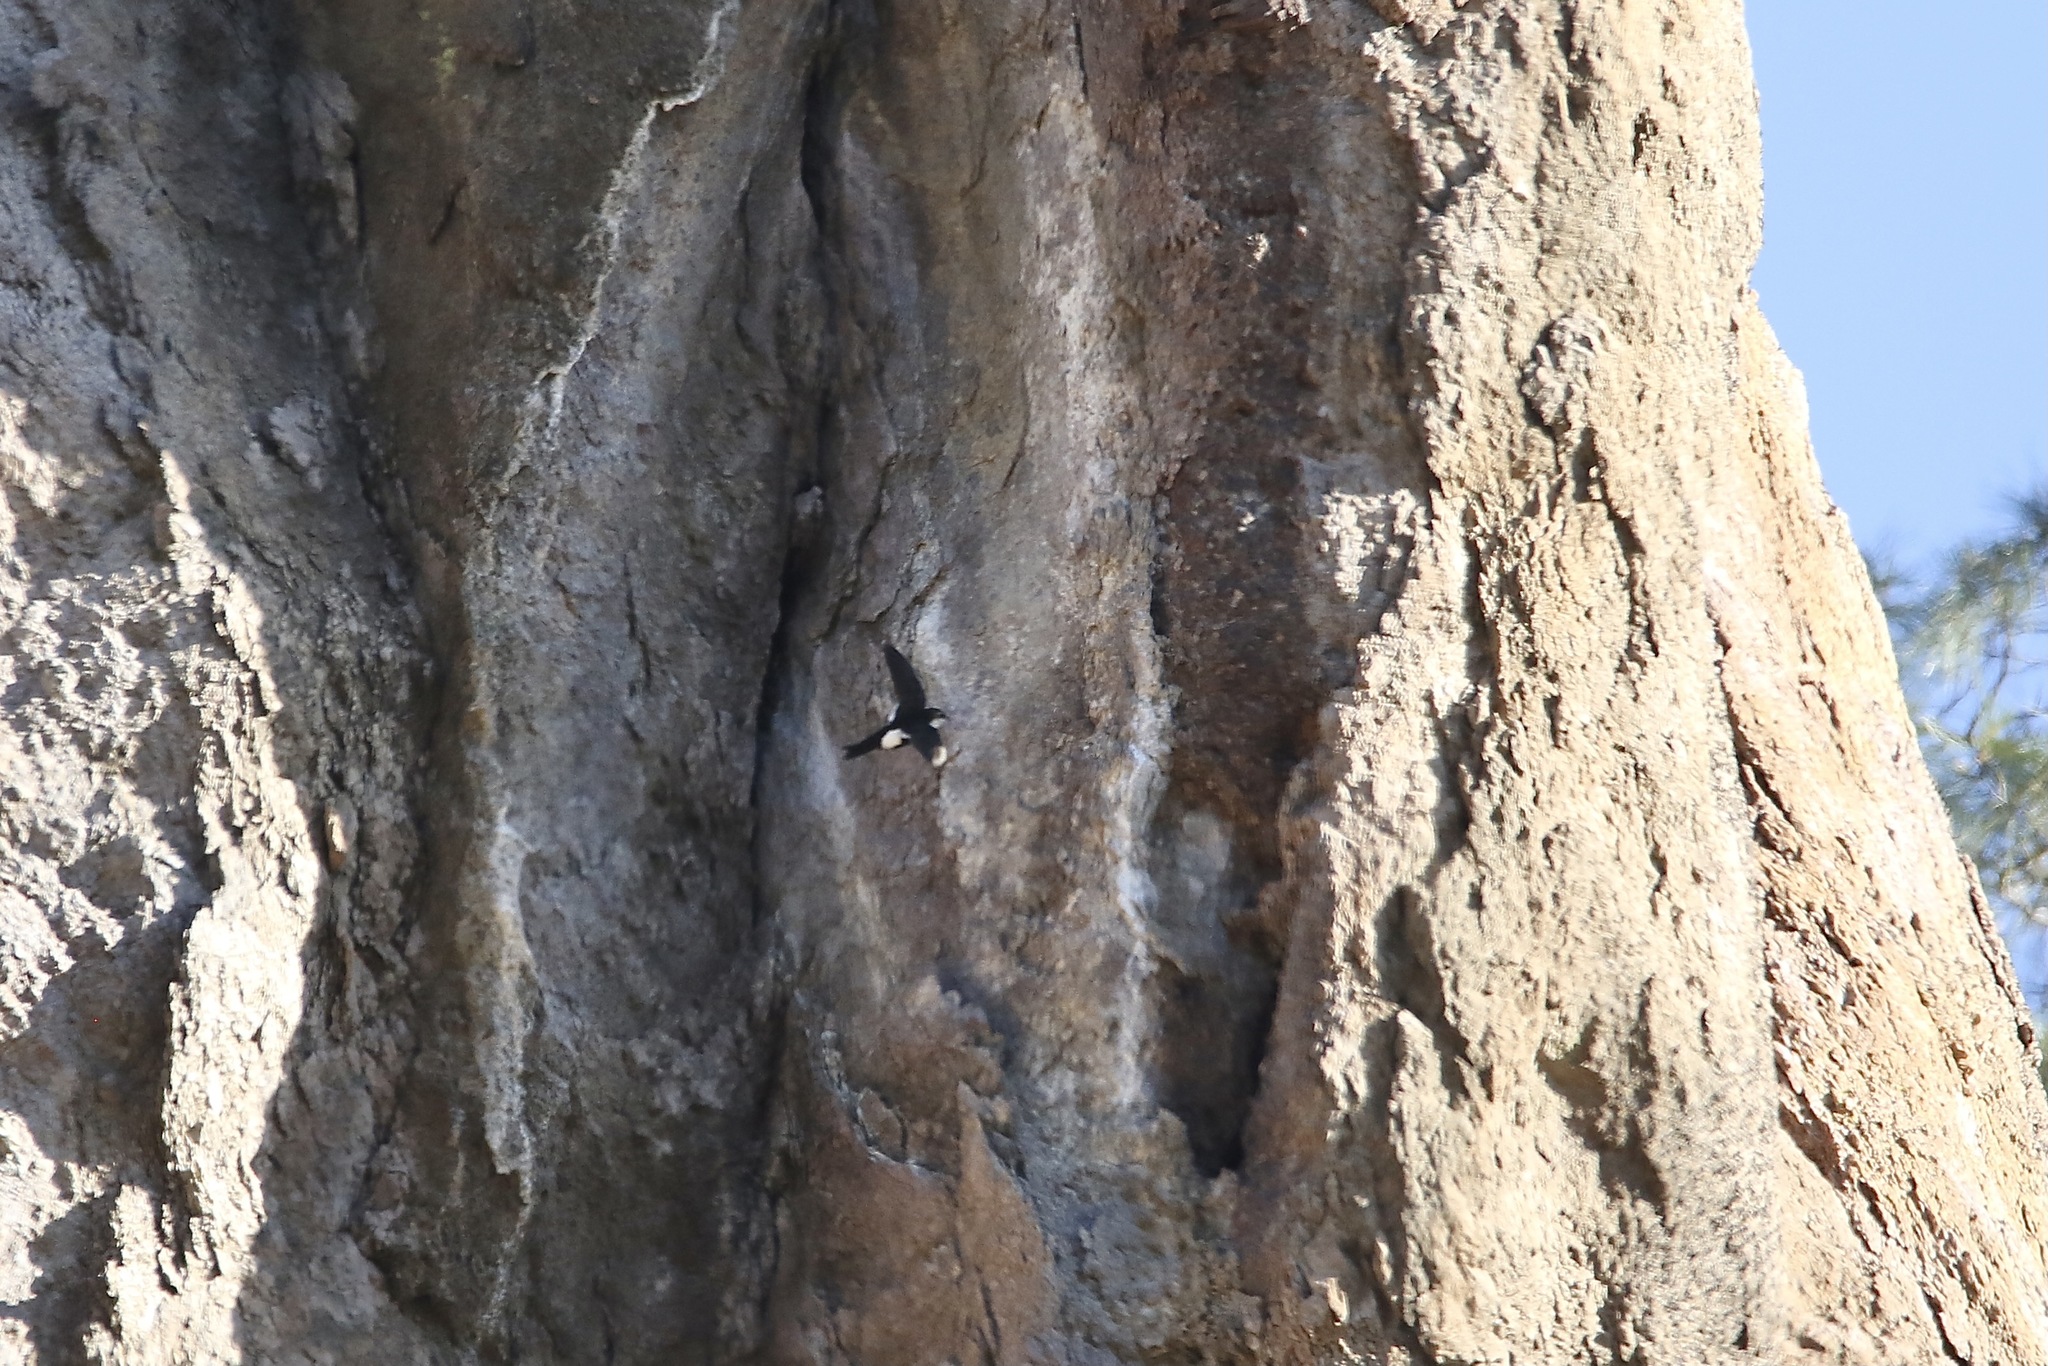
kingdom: Animalia
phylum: Chordata
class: Aves
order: Apodiformes
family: Apodidae
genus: Aeronautes
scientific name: Aeronautes saxatalis
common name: White-throated swift
